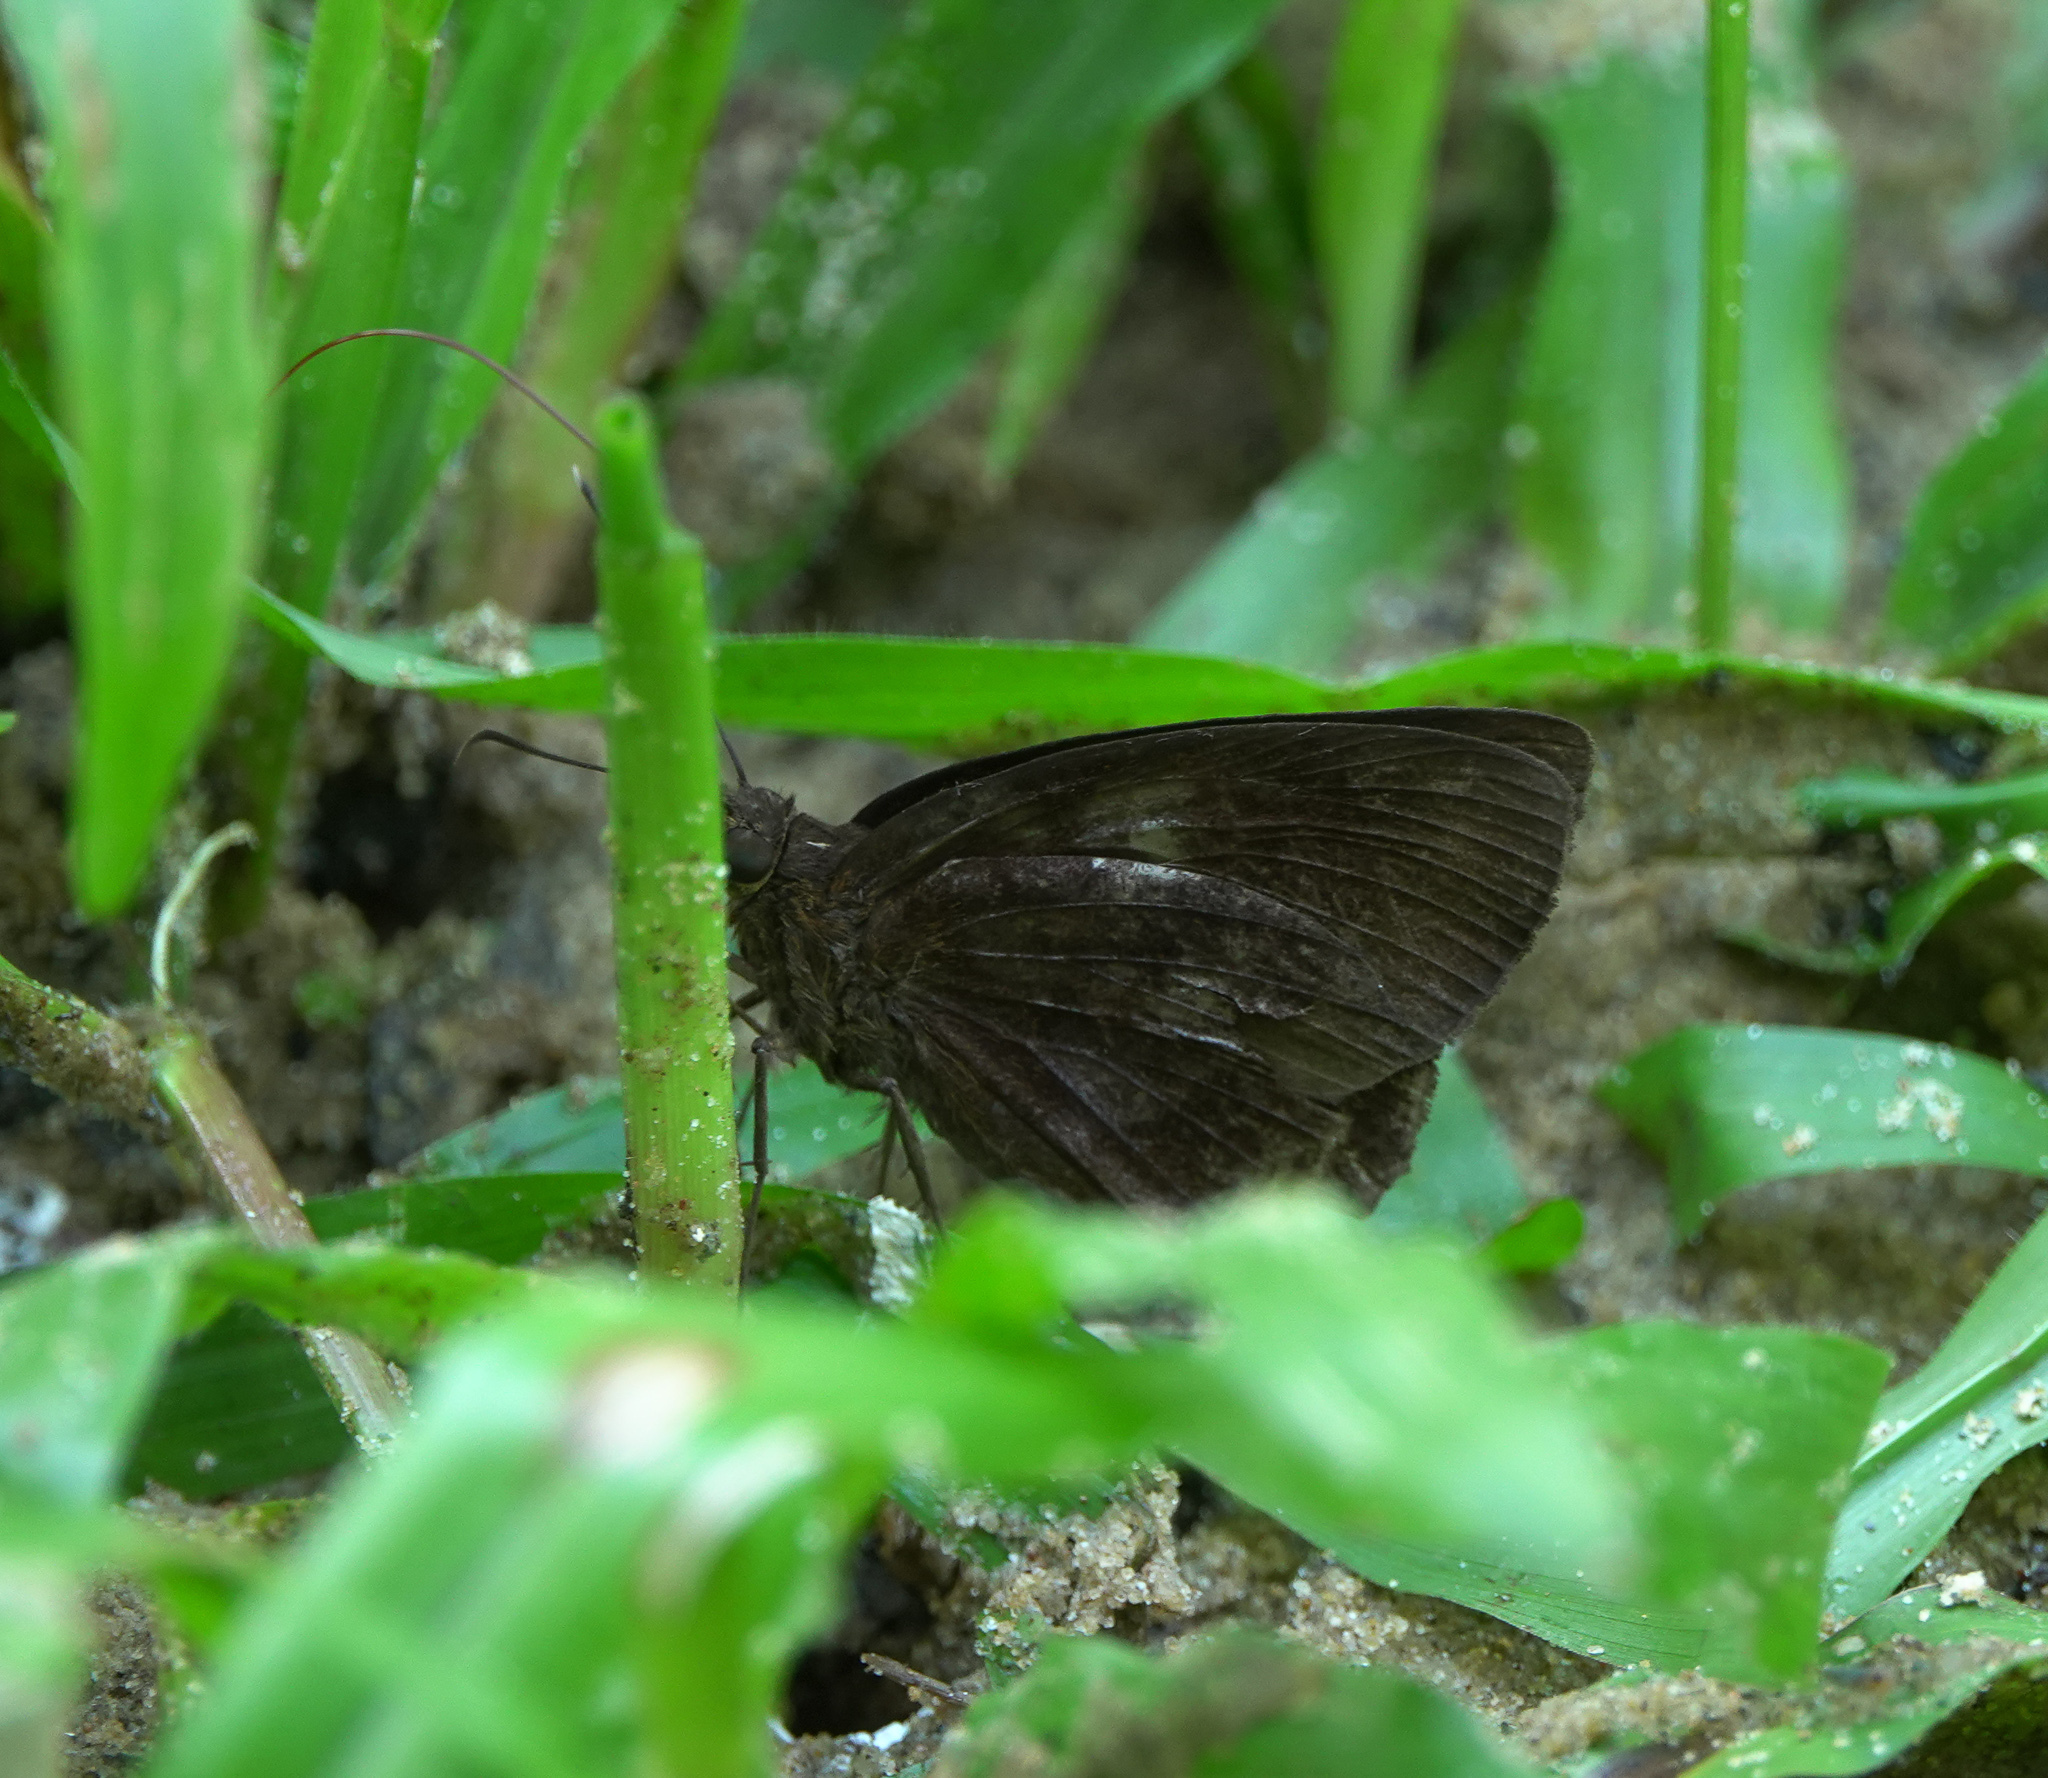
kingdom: Animalia
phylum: Arthropoda
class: Insecta
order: Lepidoptera
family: Hesperiidae
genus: Ancistroides
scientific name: Ancistroides nigrita
